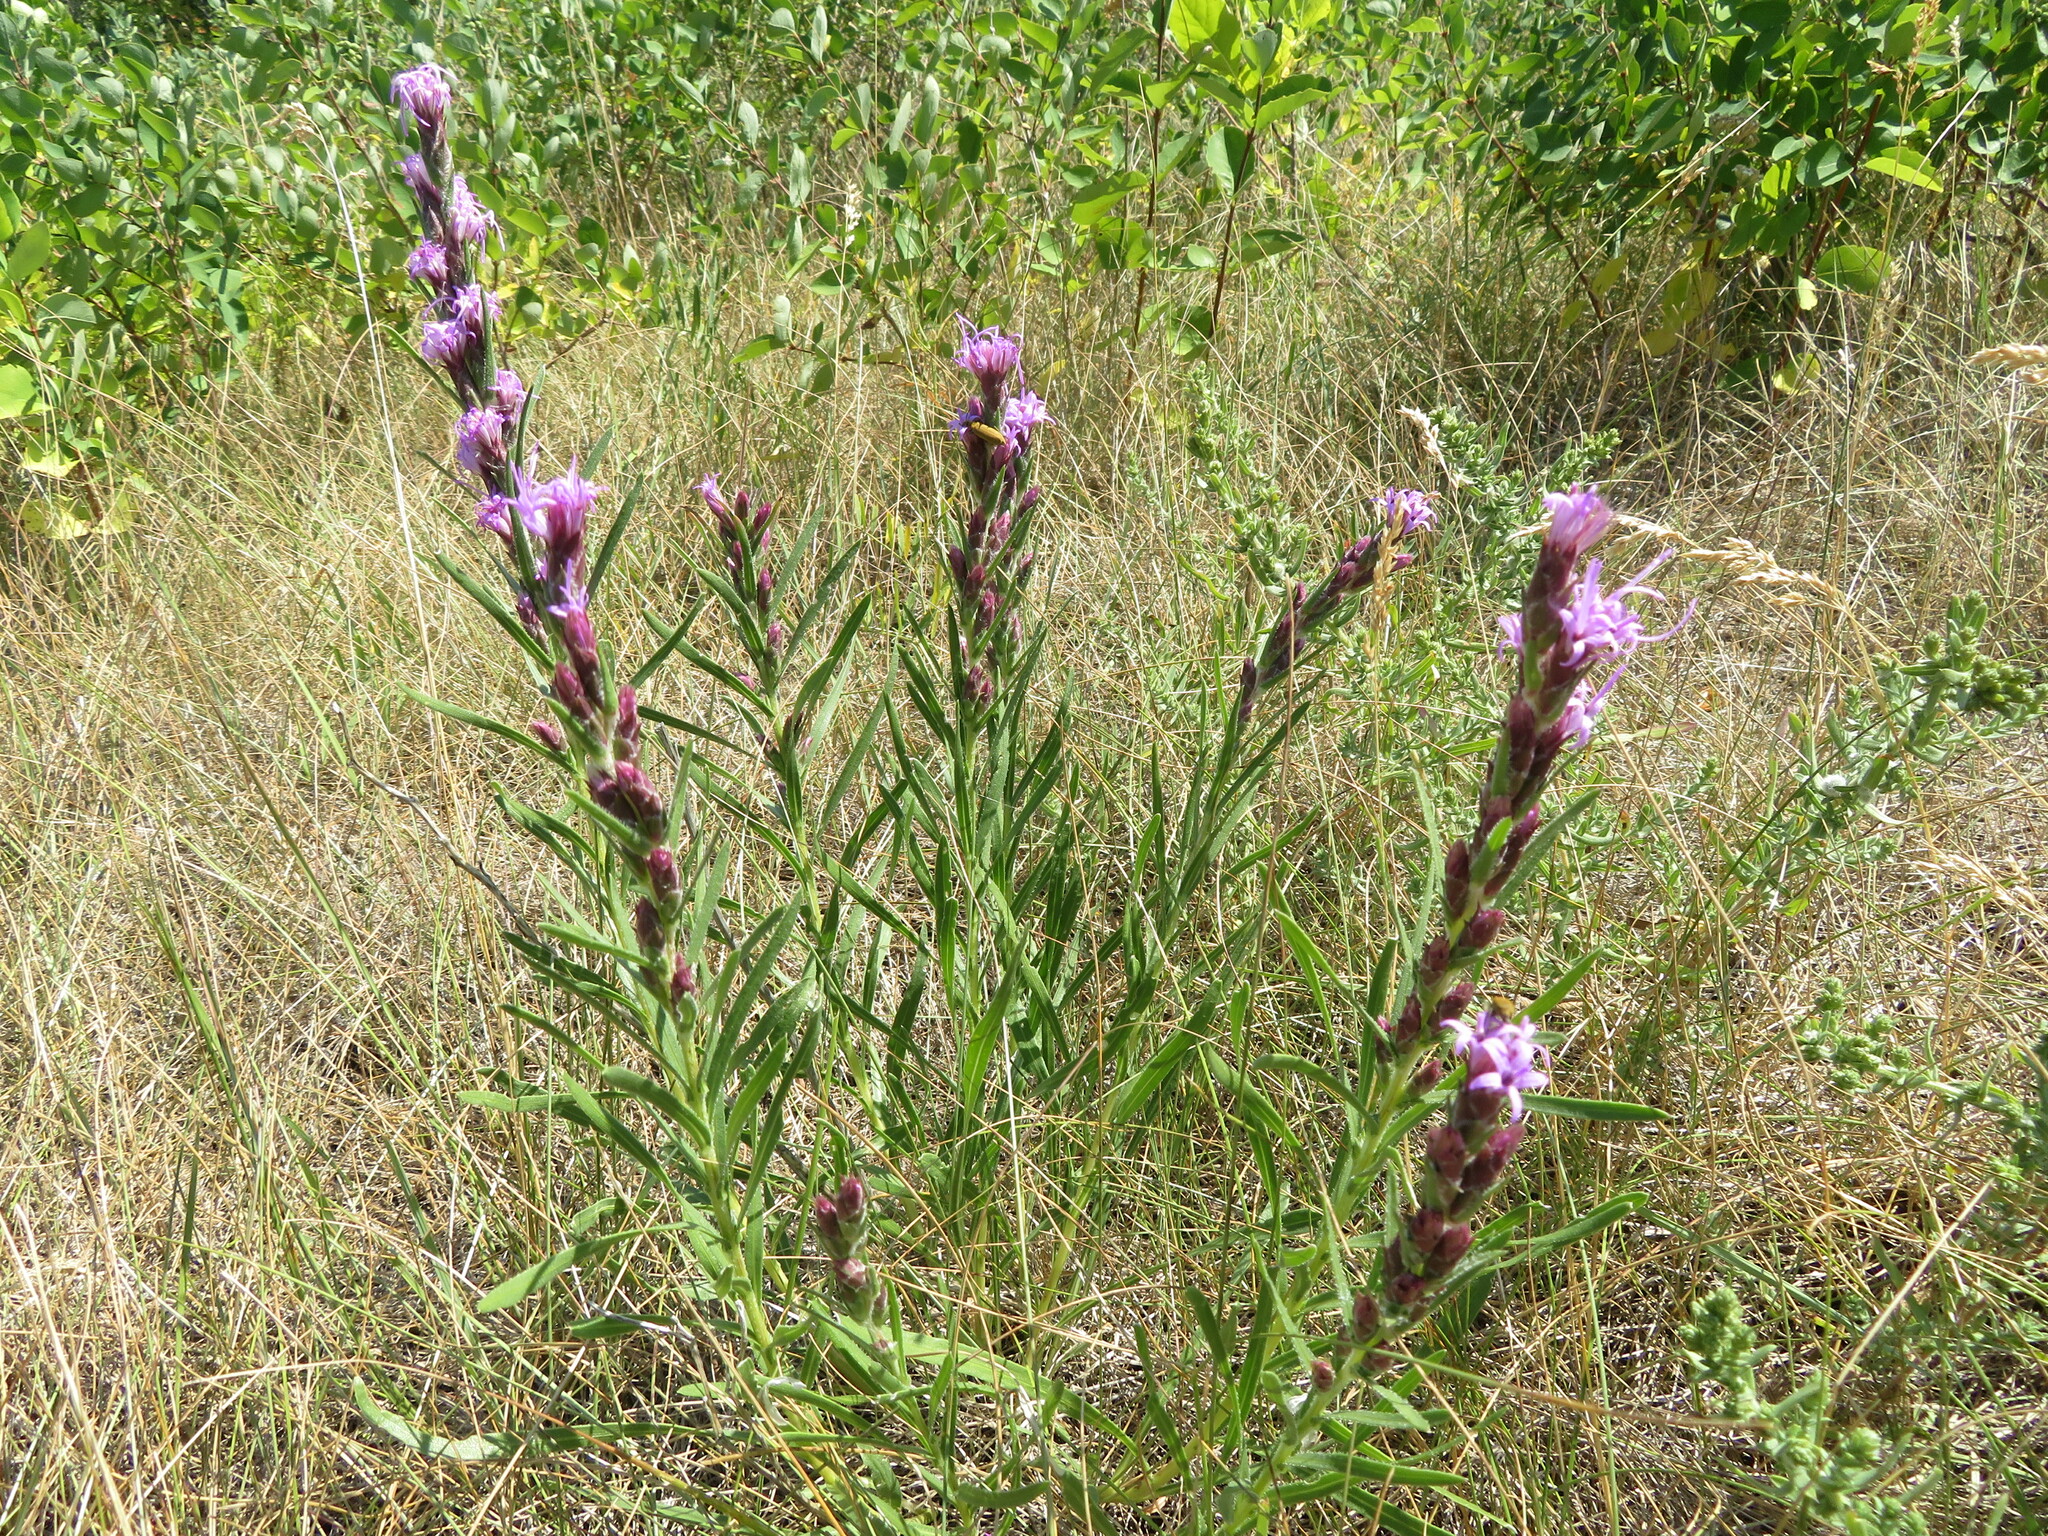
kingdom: Plantae
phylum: Tracheophyta
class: Magnoliopsida
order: Asterales
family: Asteraceae
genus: Liatris
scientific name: Liatris punctata
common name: Dotted gayfeather
